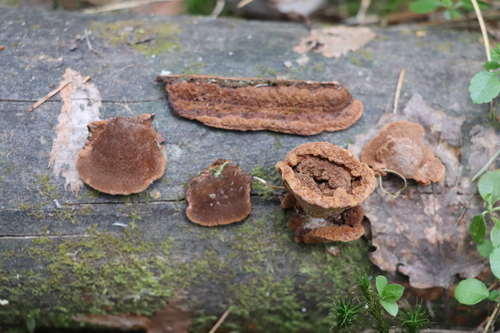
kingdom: Fungi
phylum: Basidiomycota
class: Agaricomycetes
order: Gloeophyllales
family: Gloeophyllaceae
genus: Gloeophyllum
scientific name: Gloeophyllum protractum
